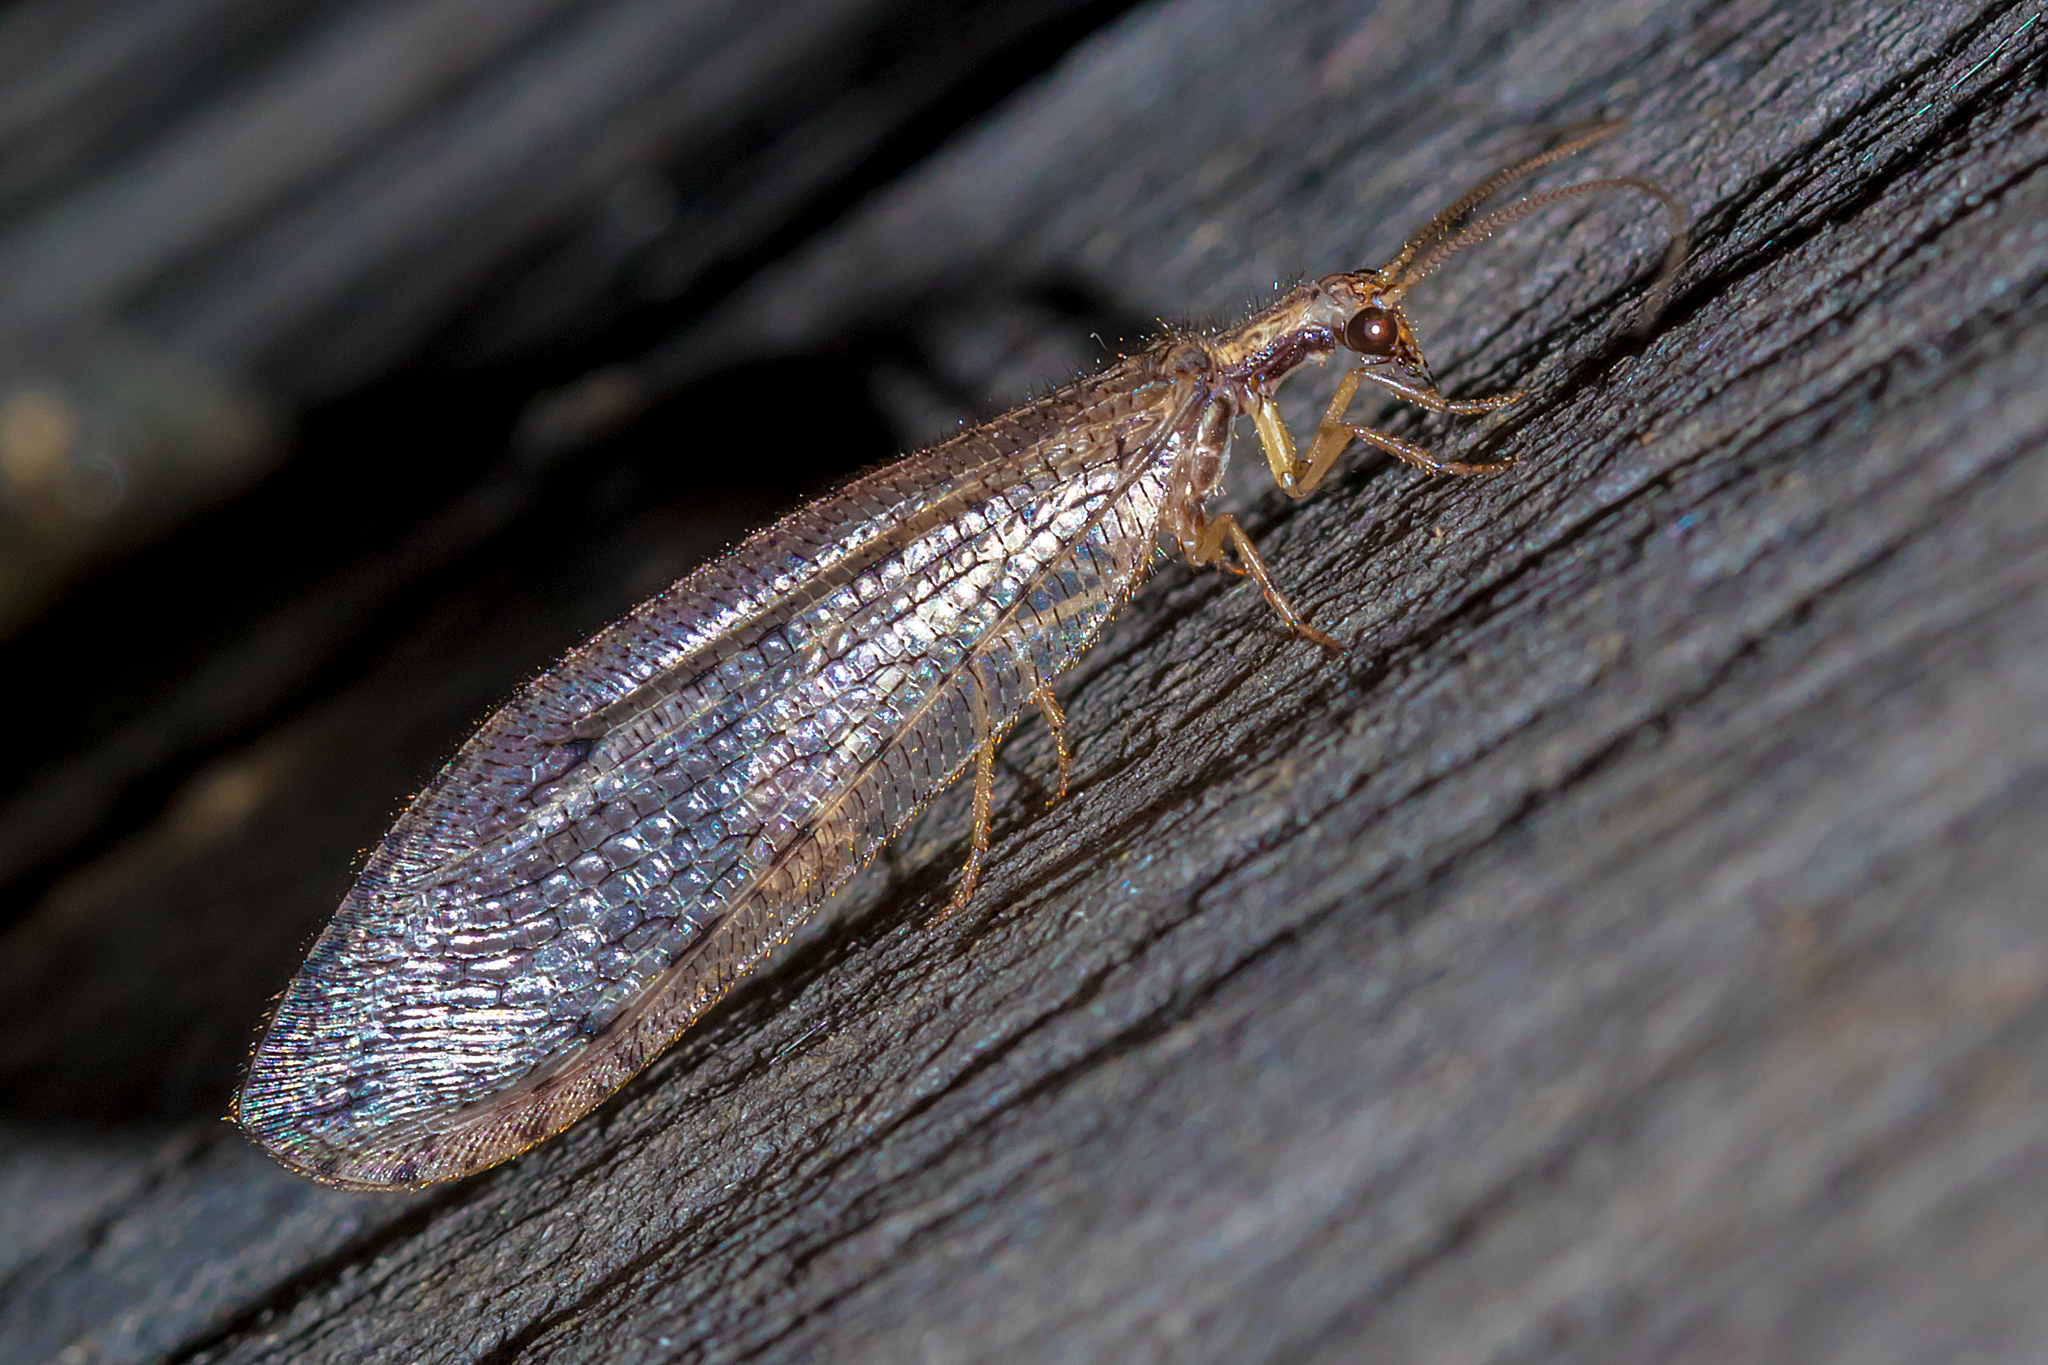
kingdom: Animalia
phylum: Arthropoda
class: Insecta
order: Neuroptera
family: Osmylidae
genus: Stenosmylus
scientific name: Stenosmylus tenuis
